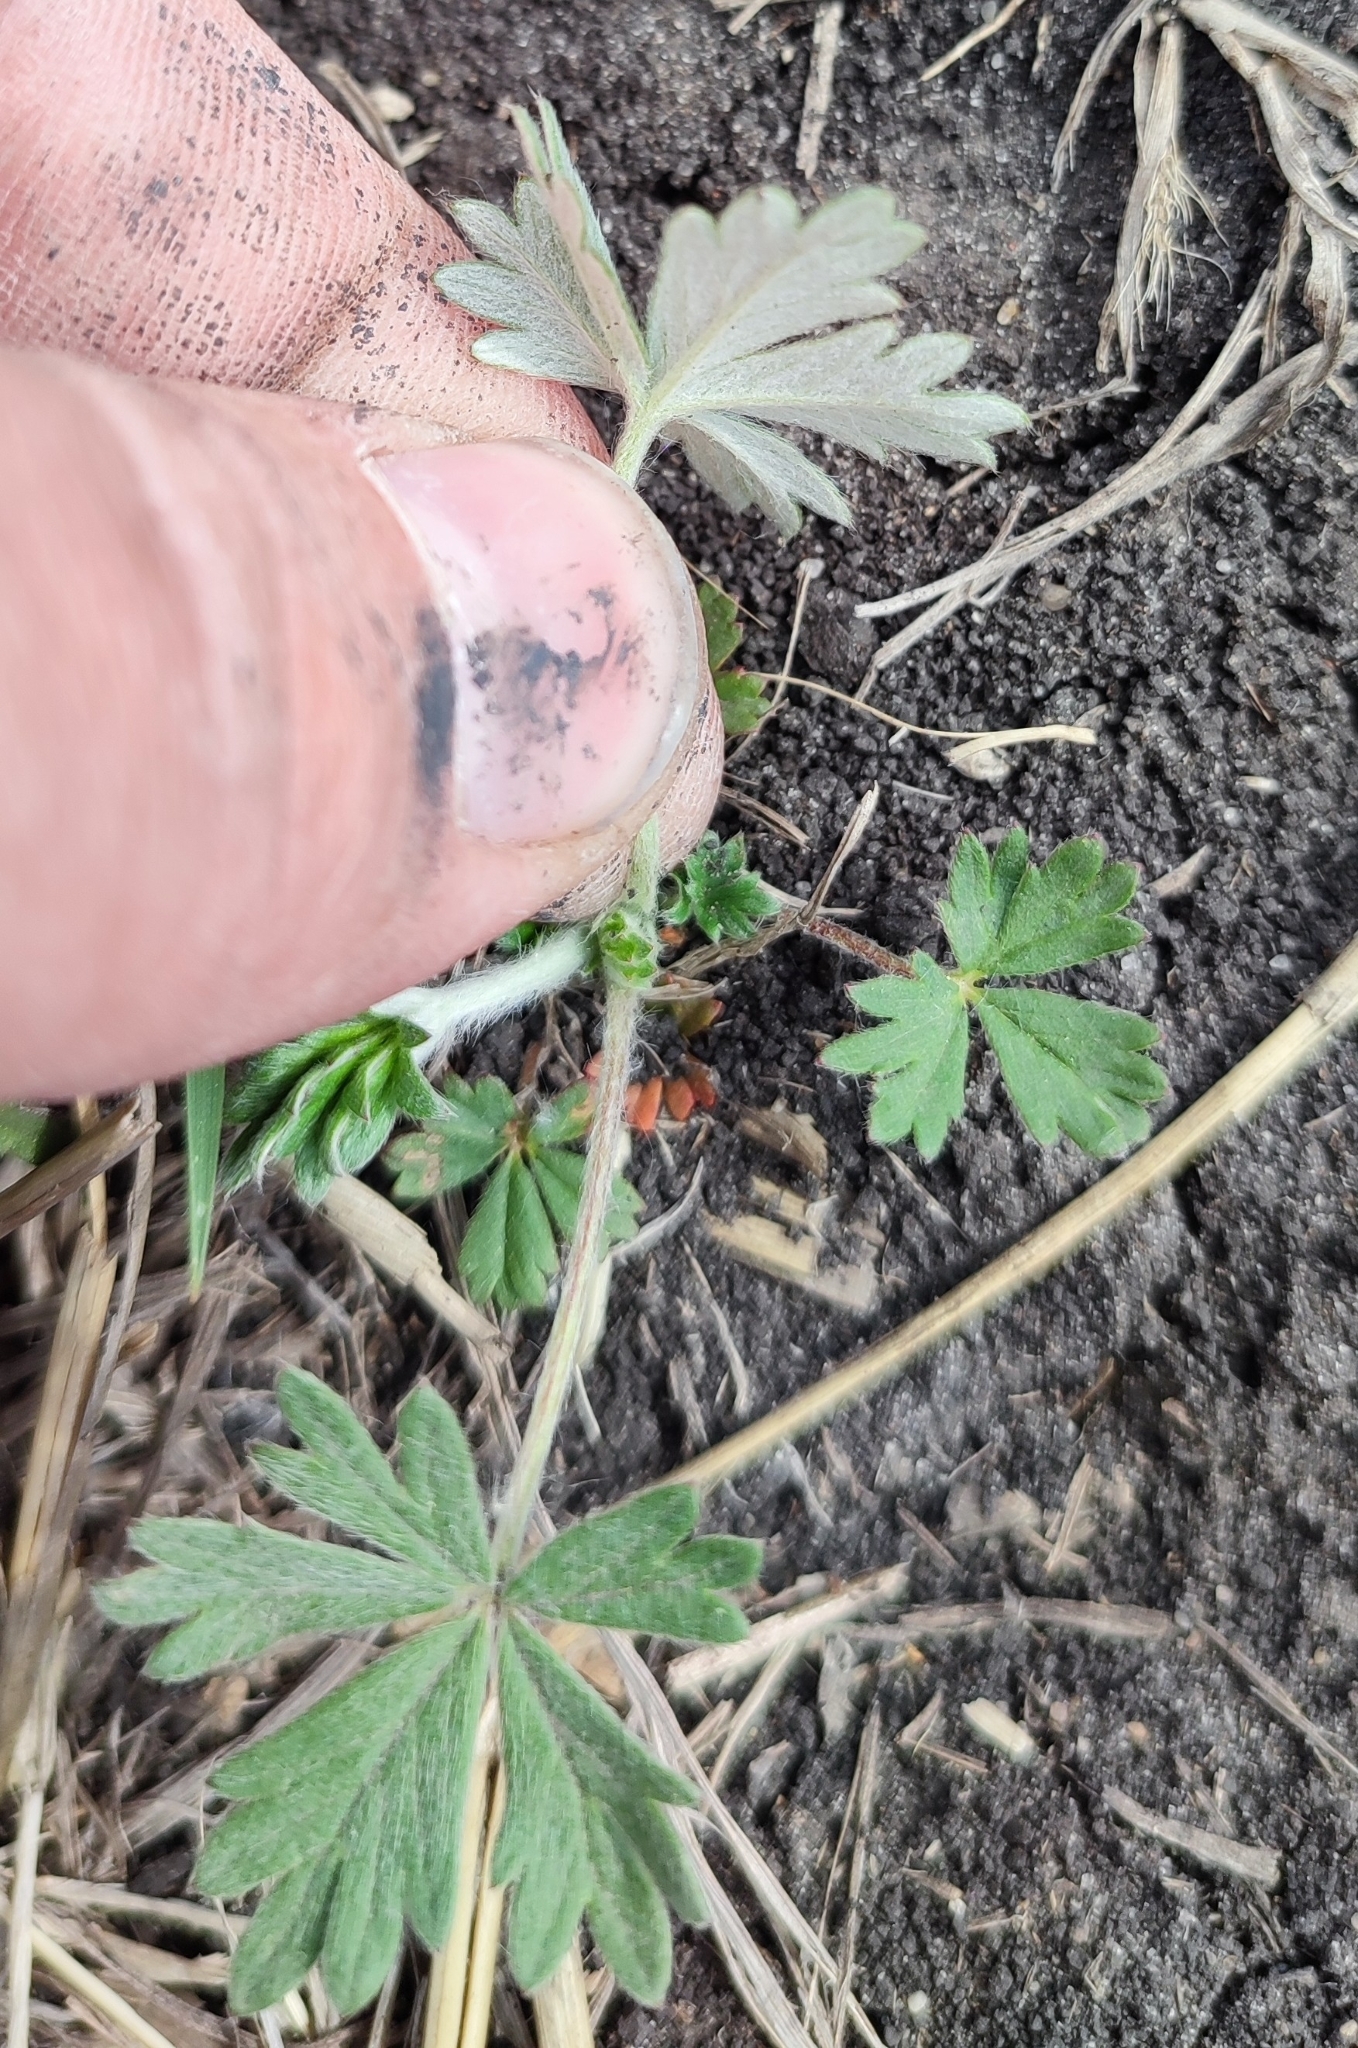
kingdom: Plantae
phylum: Tracheophyta
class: Magnoliopsida
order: Rosales
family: Rosaceae
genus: Potentilla
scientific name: Potentilla argentea
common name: Hoary cinquefoil
